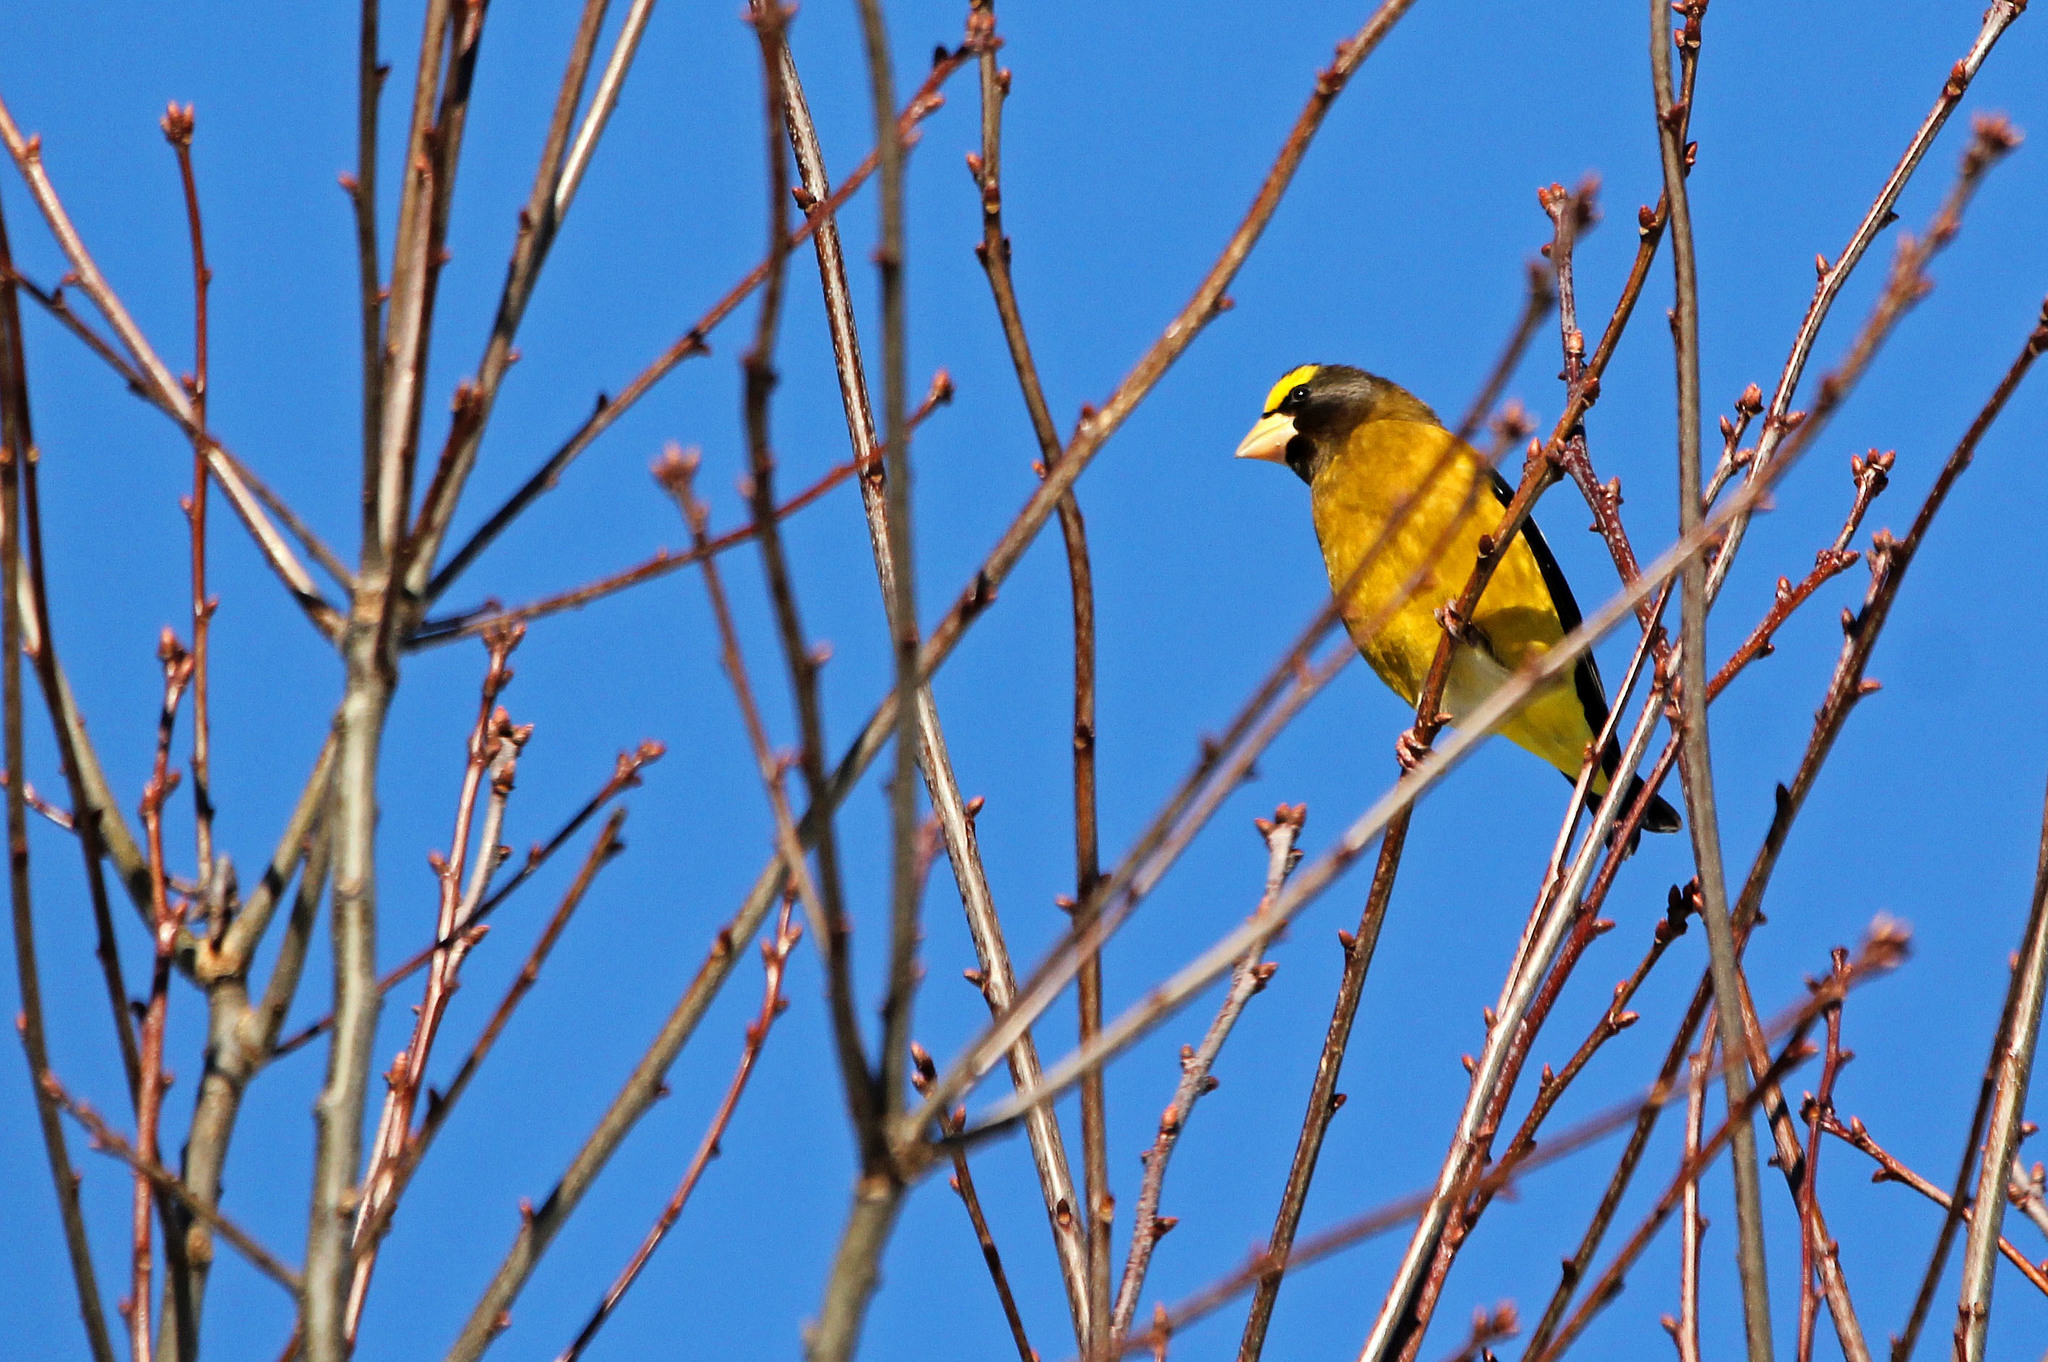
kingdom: Animalia
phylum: Chordata
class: Aves
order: Passeriformes
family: Fringillidae
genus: Hesperiphona
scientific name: Hesperiphona vespertina
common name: Evening grosbeak
